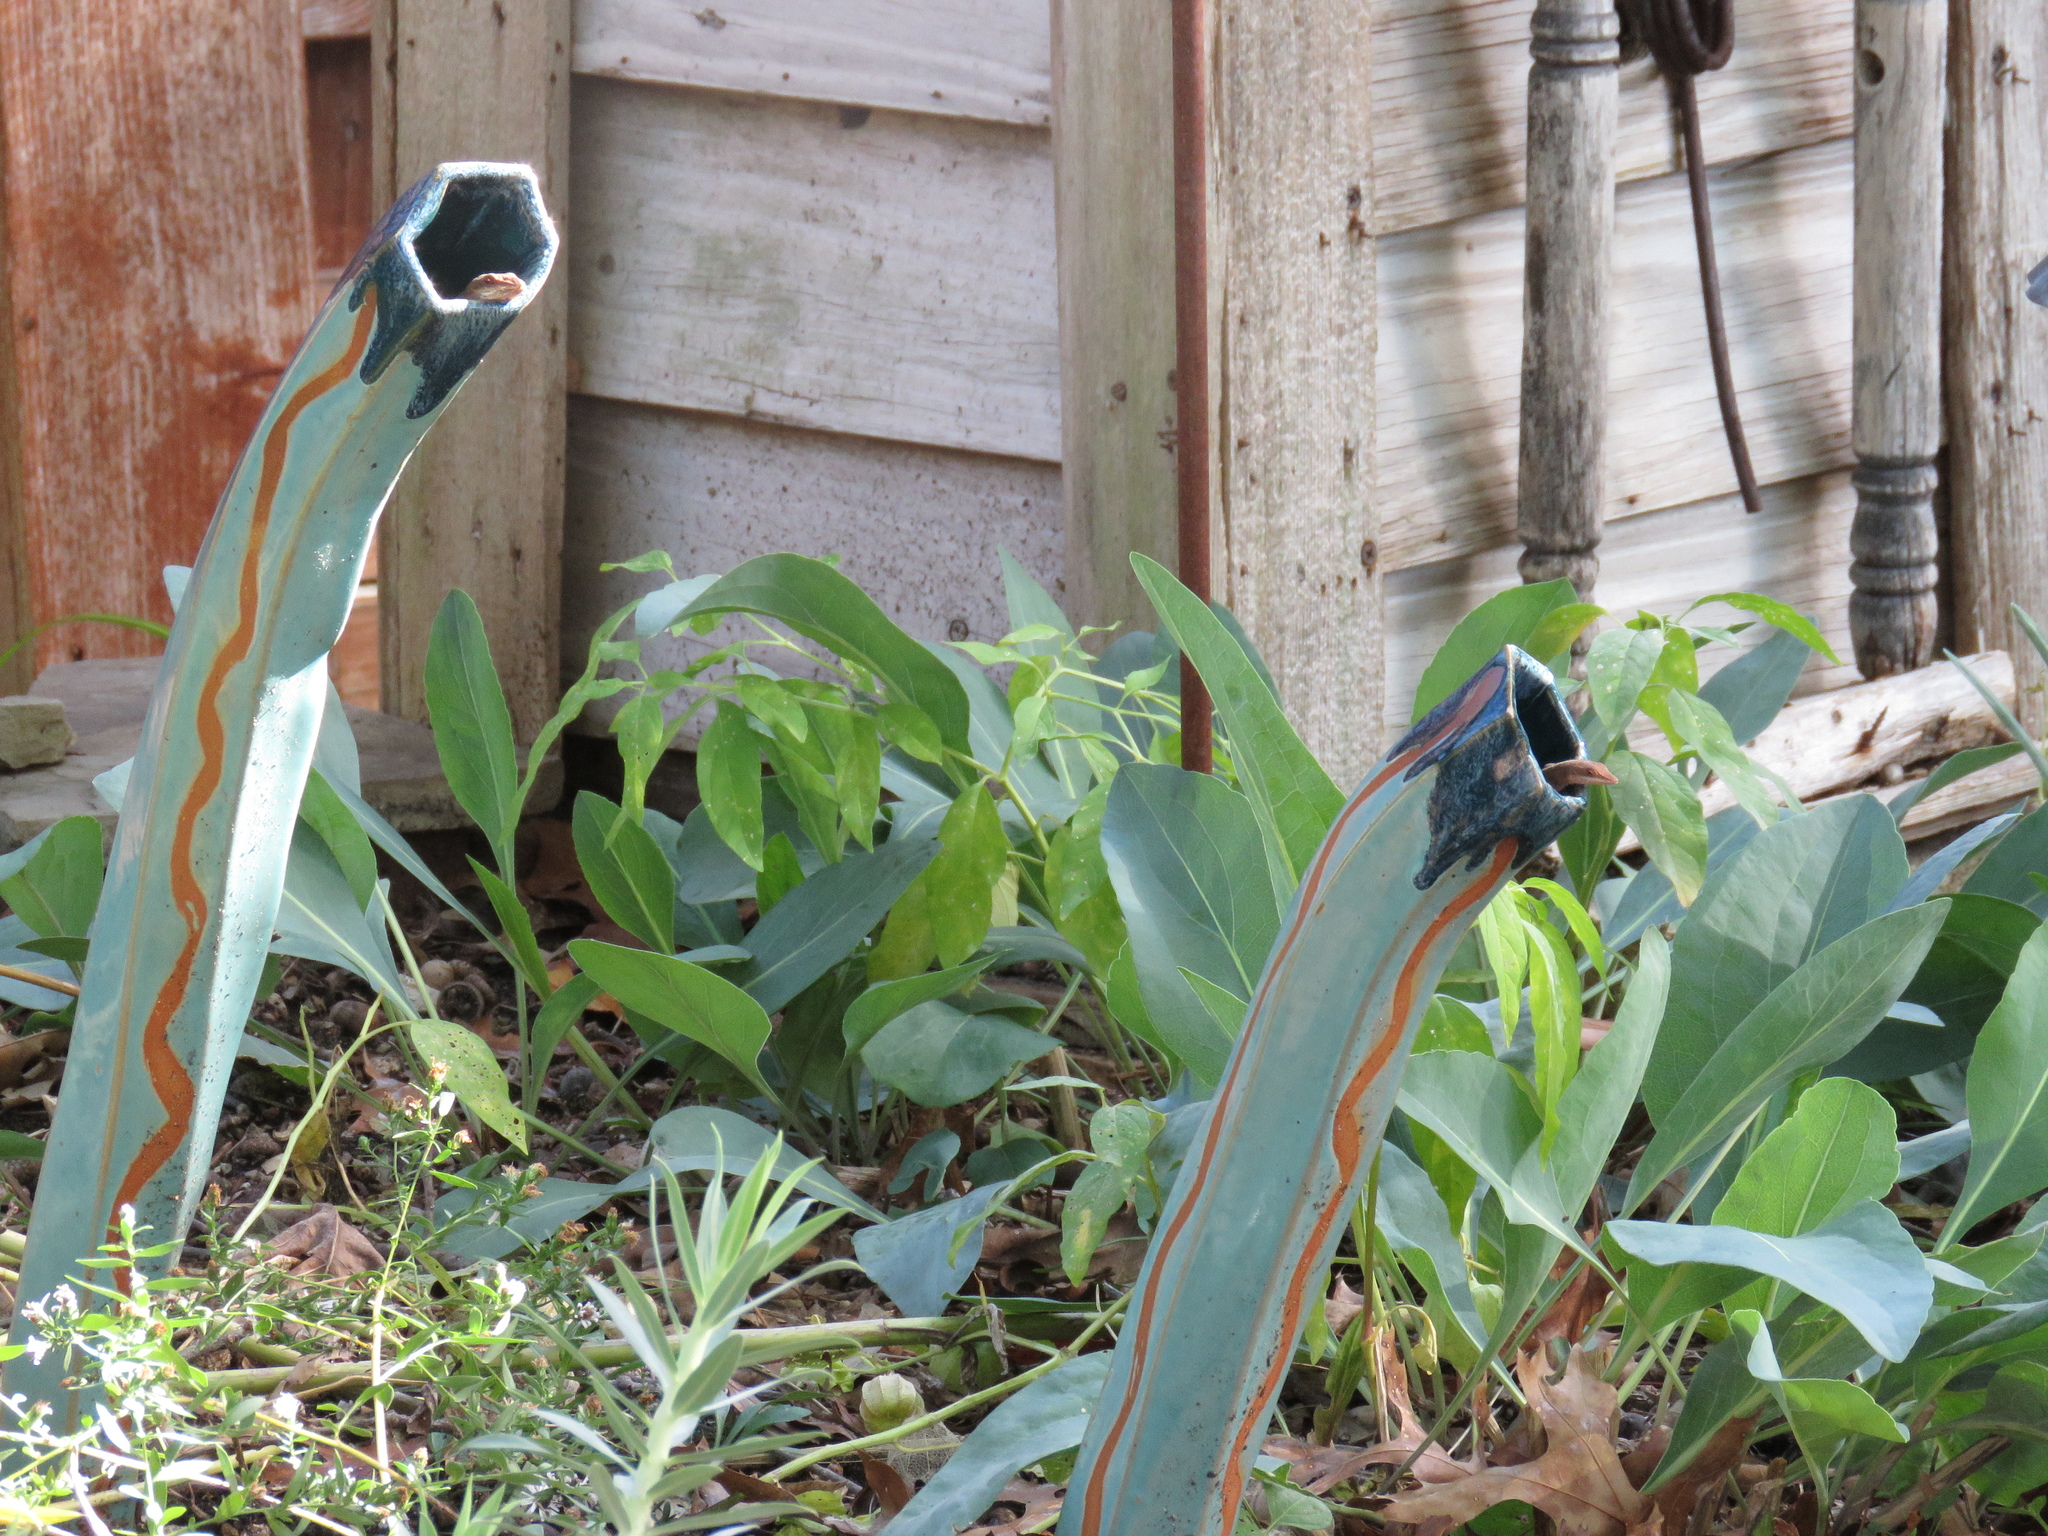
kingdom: Animalia
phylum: Chordata
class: Squamata
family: Dactyloidae
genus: Anolis
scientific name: Anolis carolinensis
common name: Green anole
